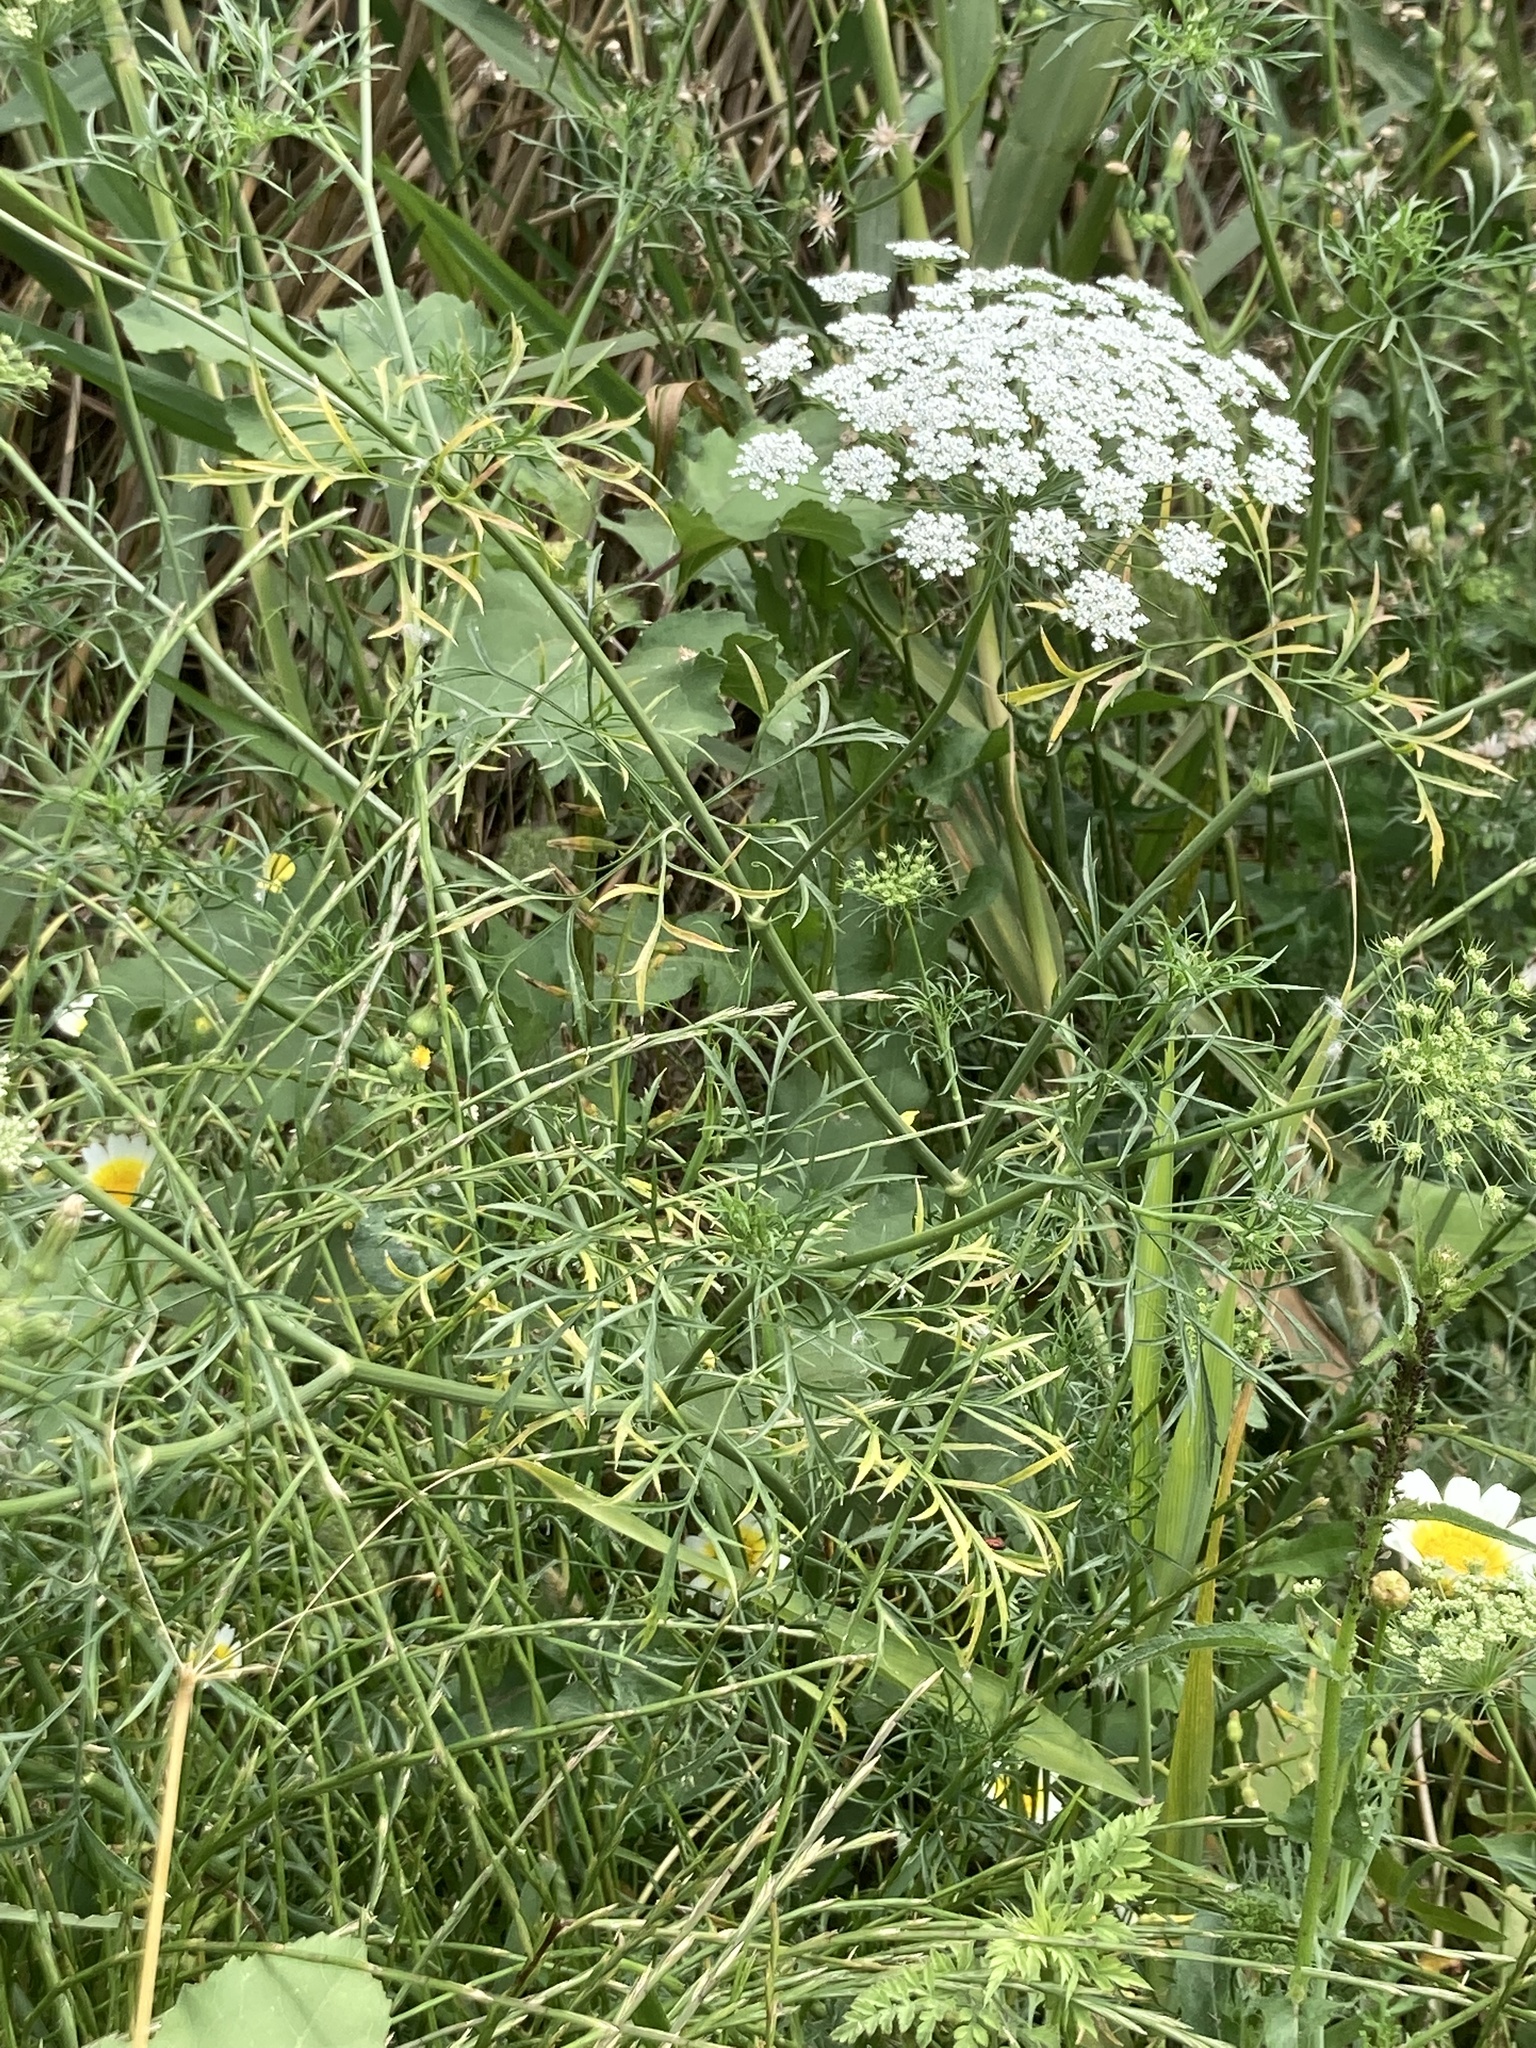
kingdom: Plantae
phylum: Tracheophyta
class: Magnoliopsida
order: Apiales
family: Apiaceae
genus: Ammi
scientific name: Ammi majus
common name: Bullwort
